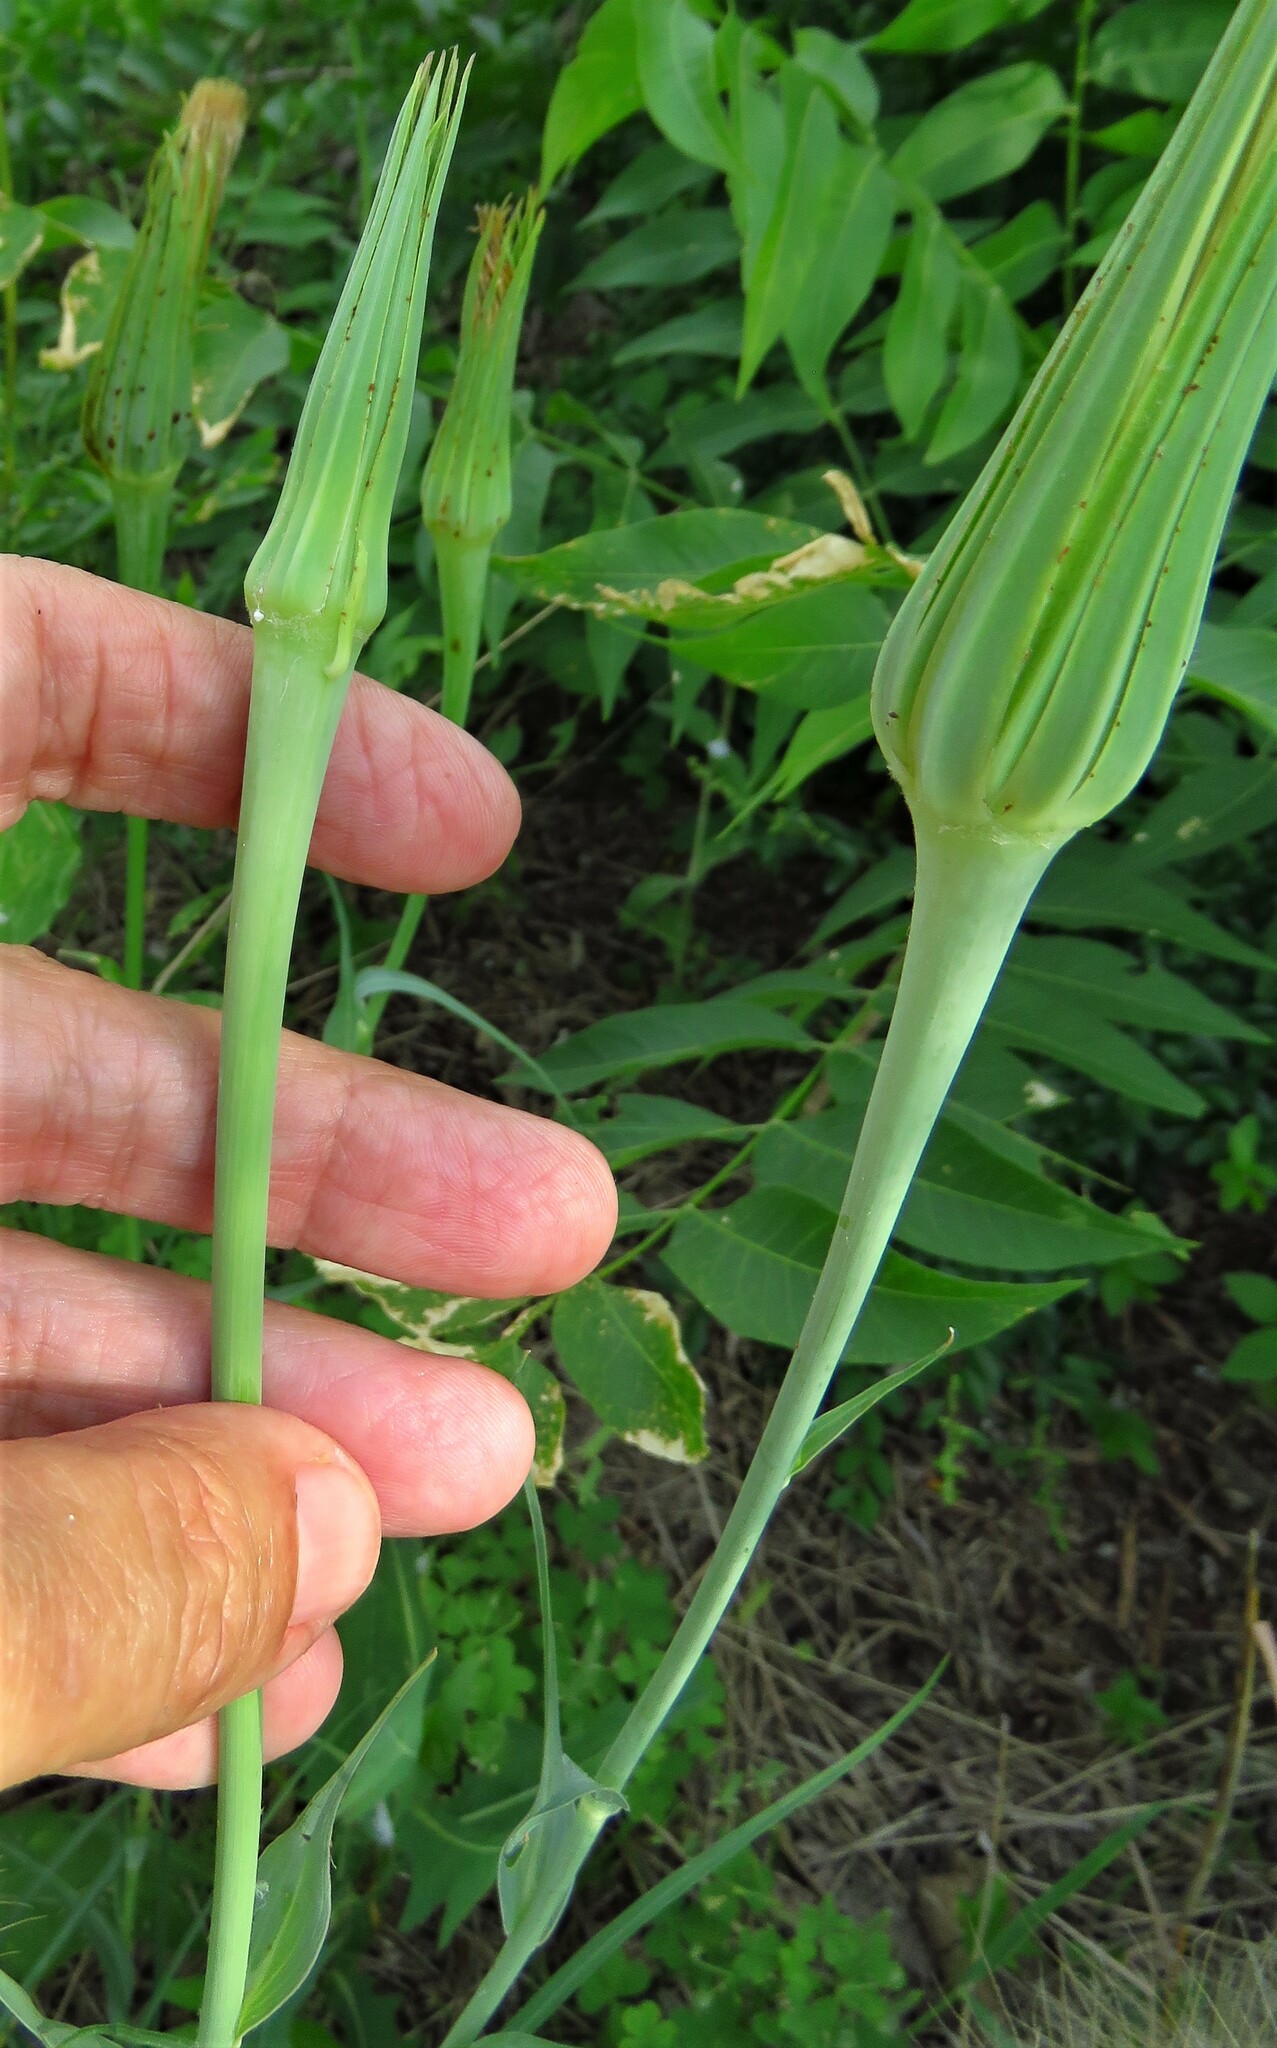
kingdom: Plantae
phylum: Tracheophyta
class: Magnoliopsida
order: Asterales
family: Asteraceae
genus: Tragopogon
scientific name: Tragopogon dubius
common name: Yellow salsify
